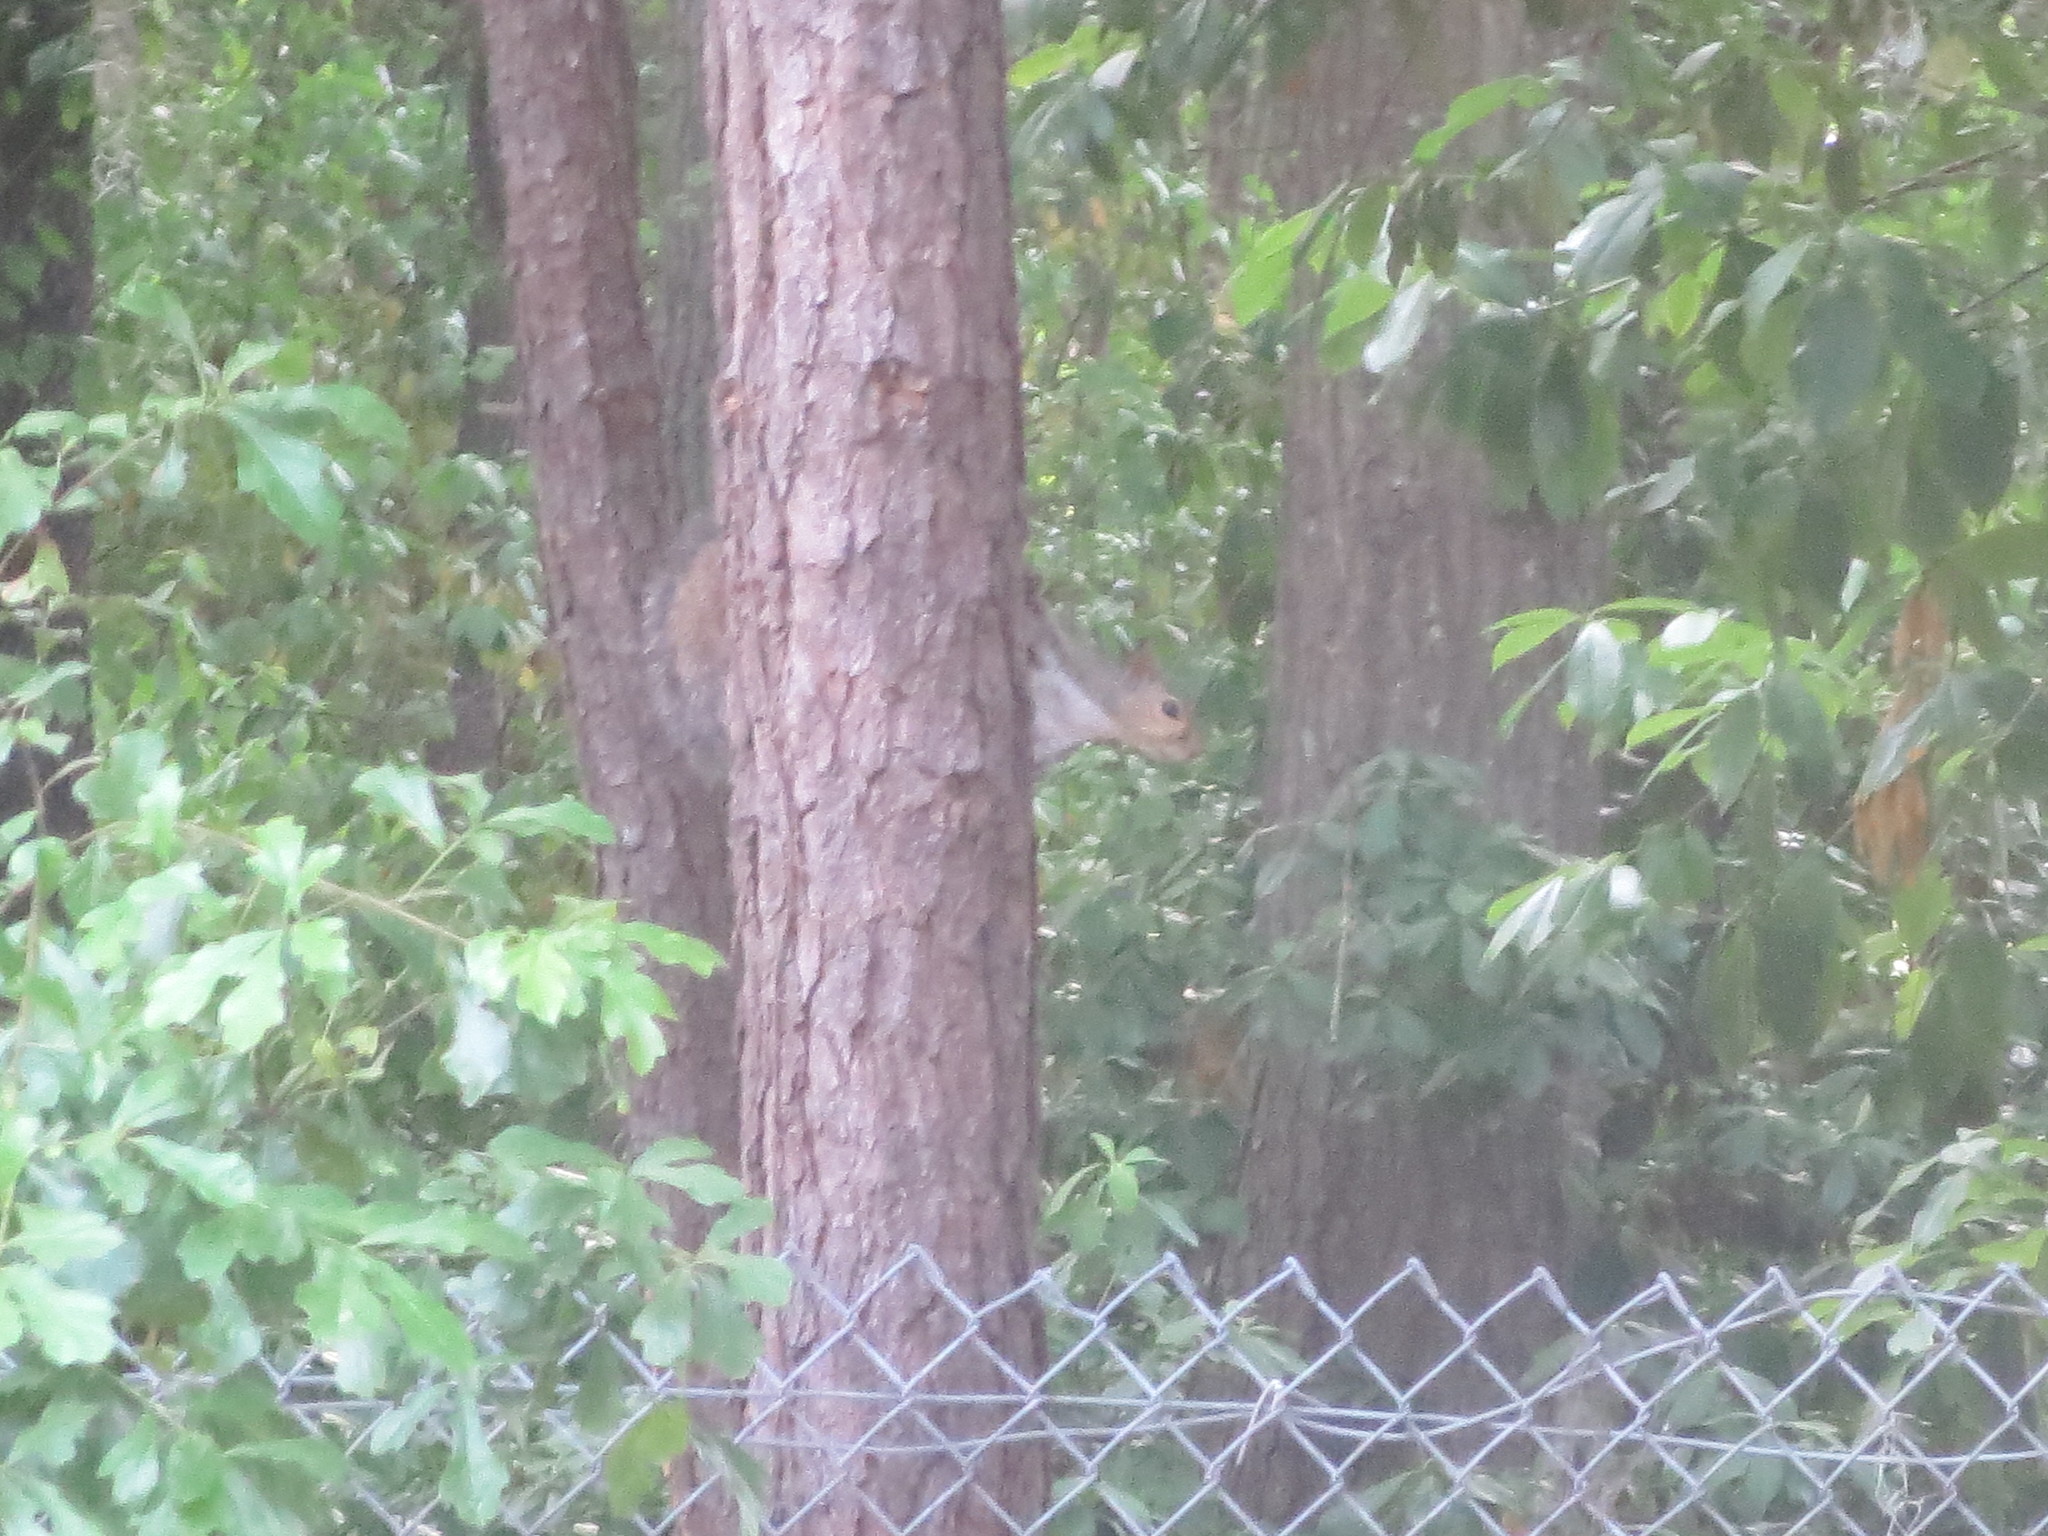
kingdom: Animalia
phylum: Chordata
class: Mammalia
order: Rodentia
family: Sciuridae
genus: Sciurus
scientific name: Sciurus carolinensis
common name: Eastern gray squirrel
